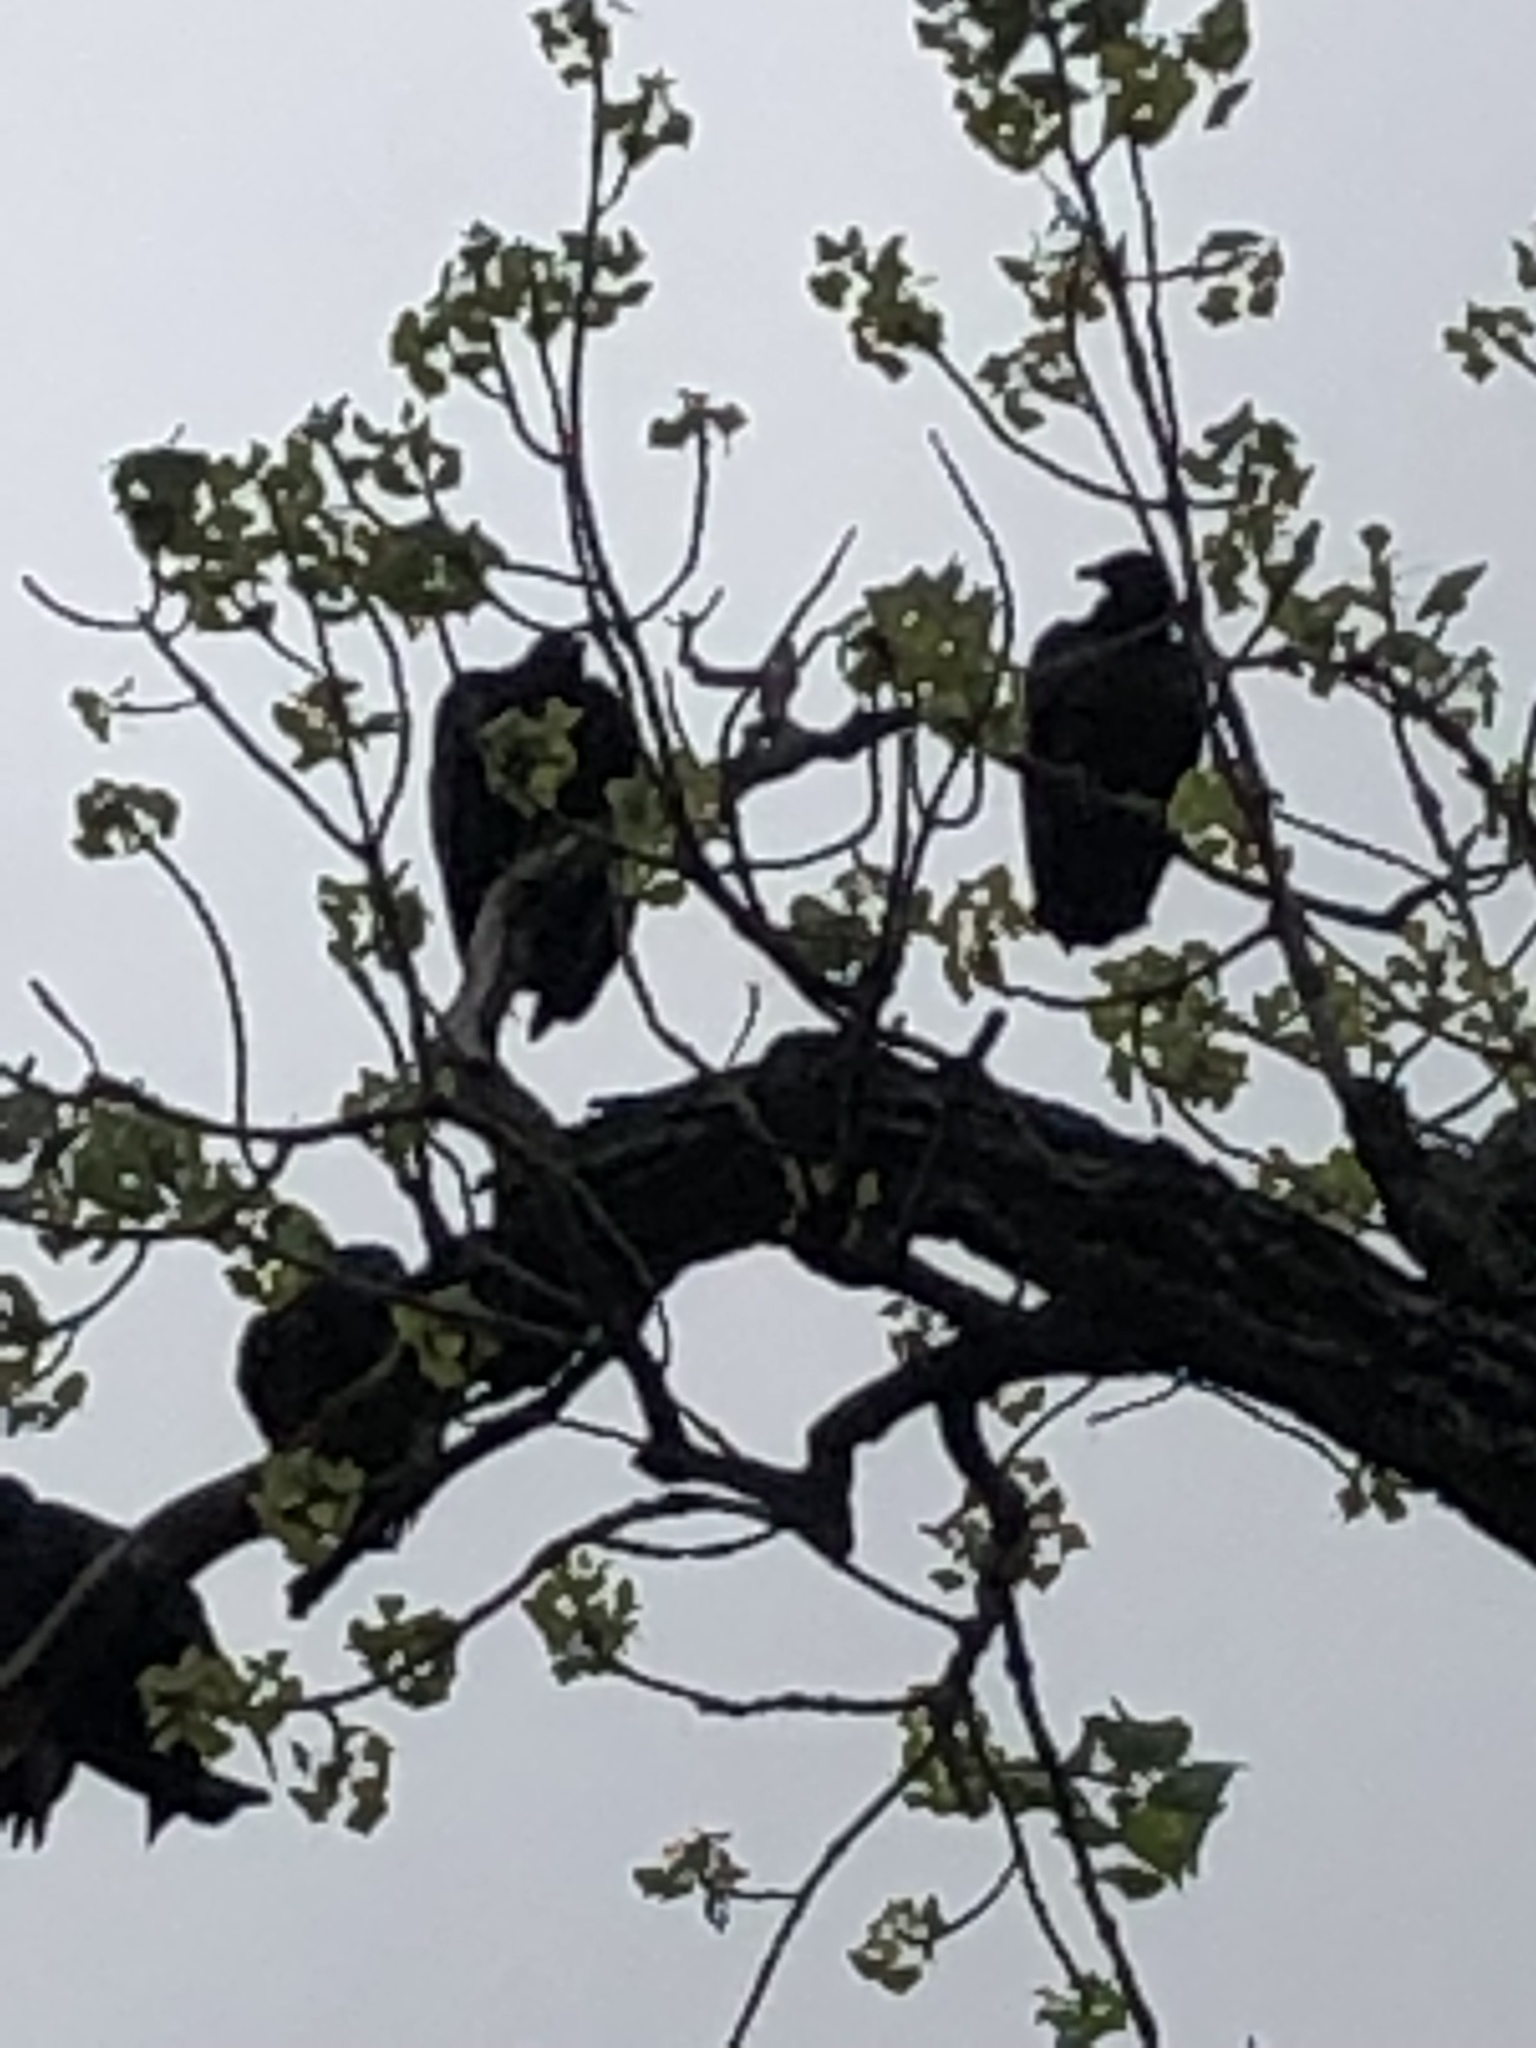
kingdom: Animalia
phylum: Chordata
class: Aves
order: Accipitriformes
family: Cathartidae
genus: Coragyps
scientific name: Coragyps atratus
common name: Black vulture
